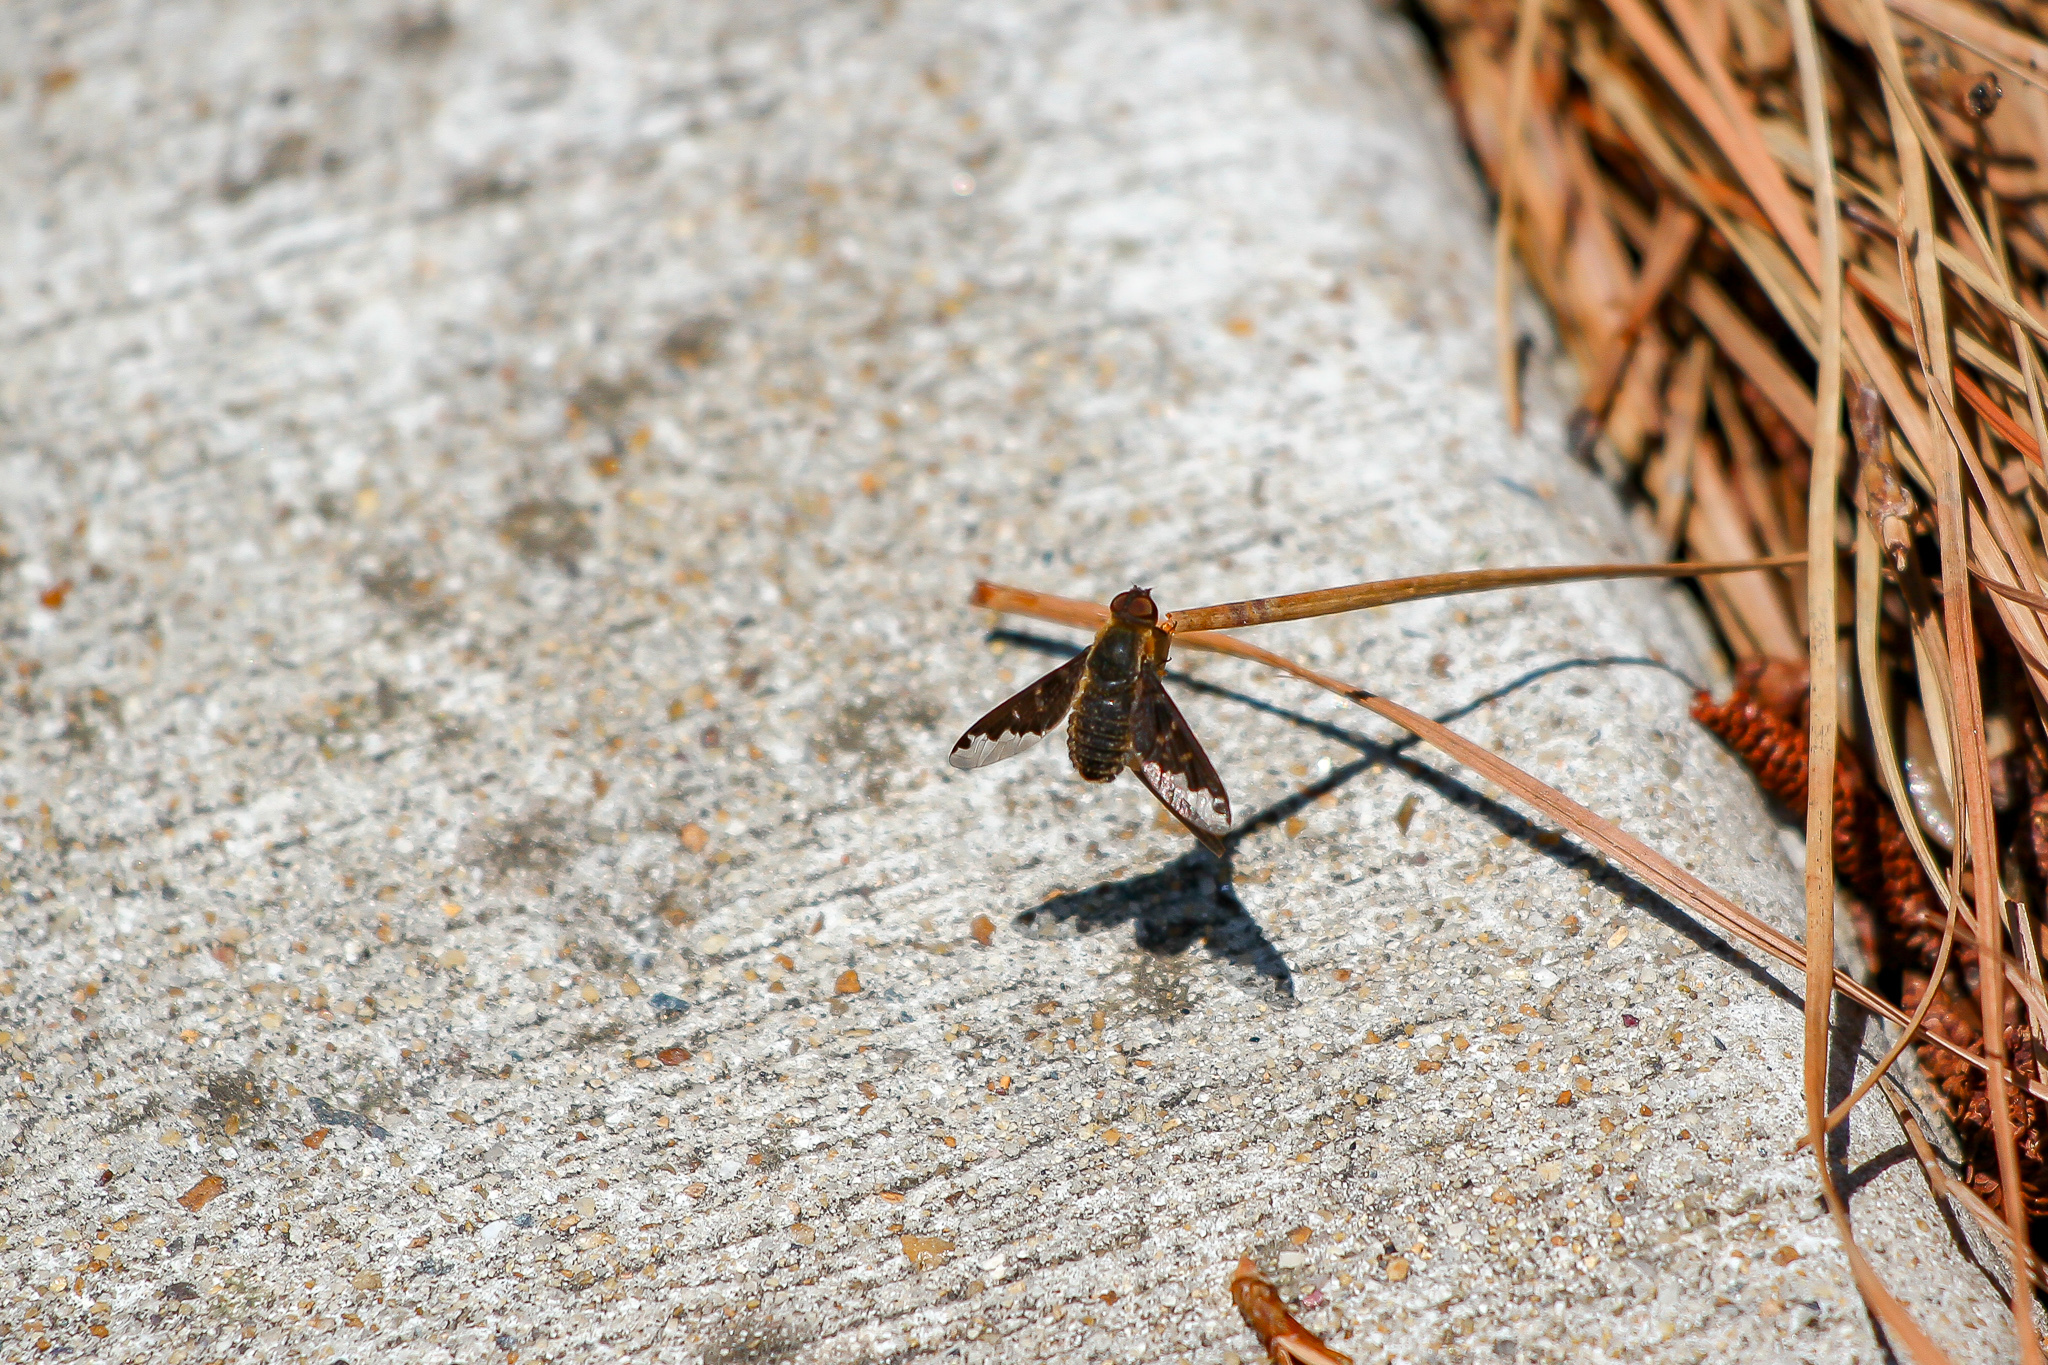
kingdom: Animalia
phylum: Arthropoda
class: Insecta
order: Diptera
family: Bombyliidae
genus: Hemipenthes
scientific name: Hemipenthes sinuosus
